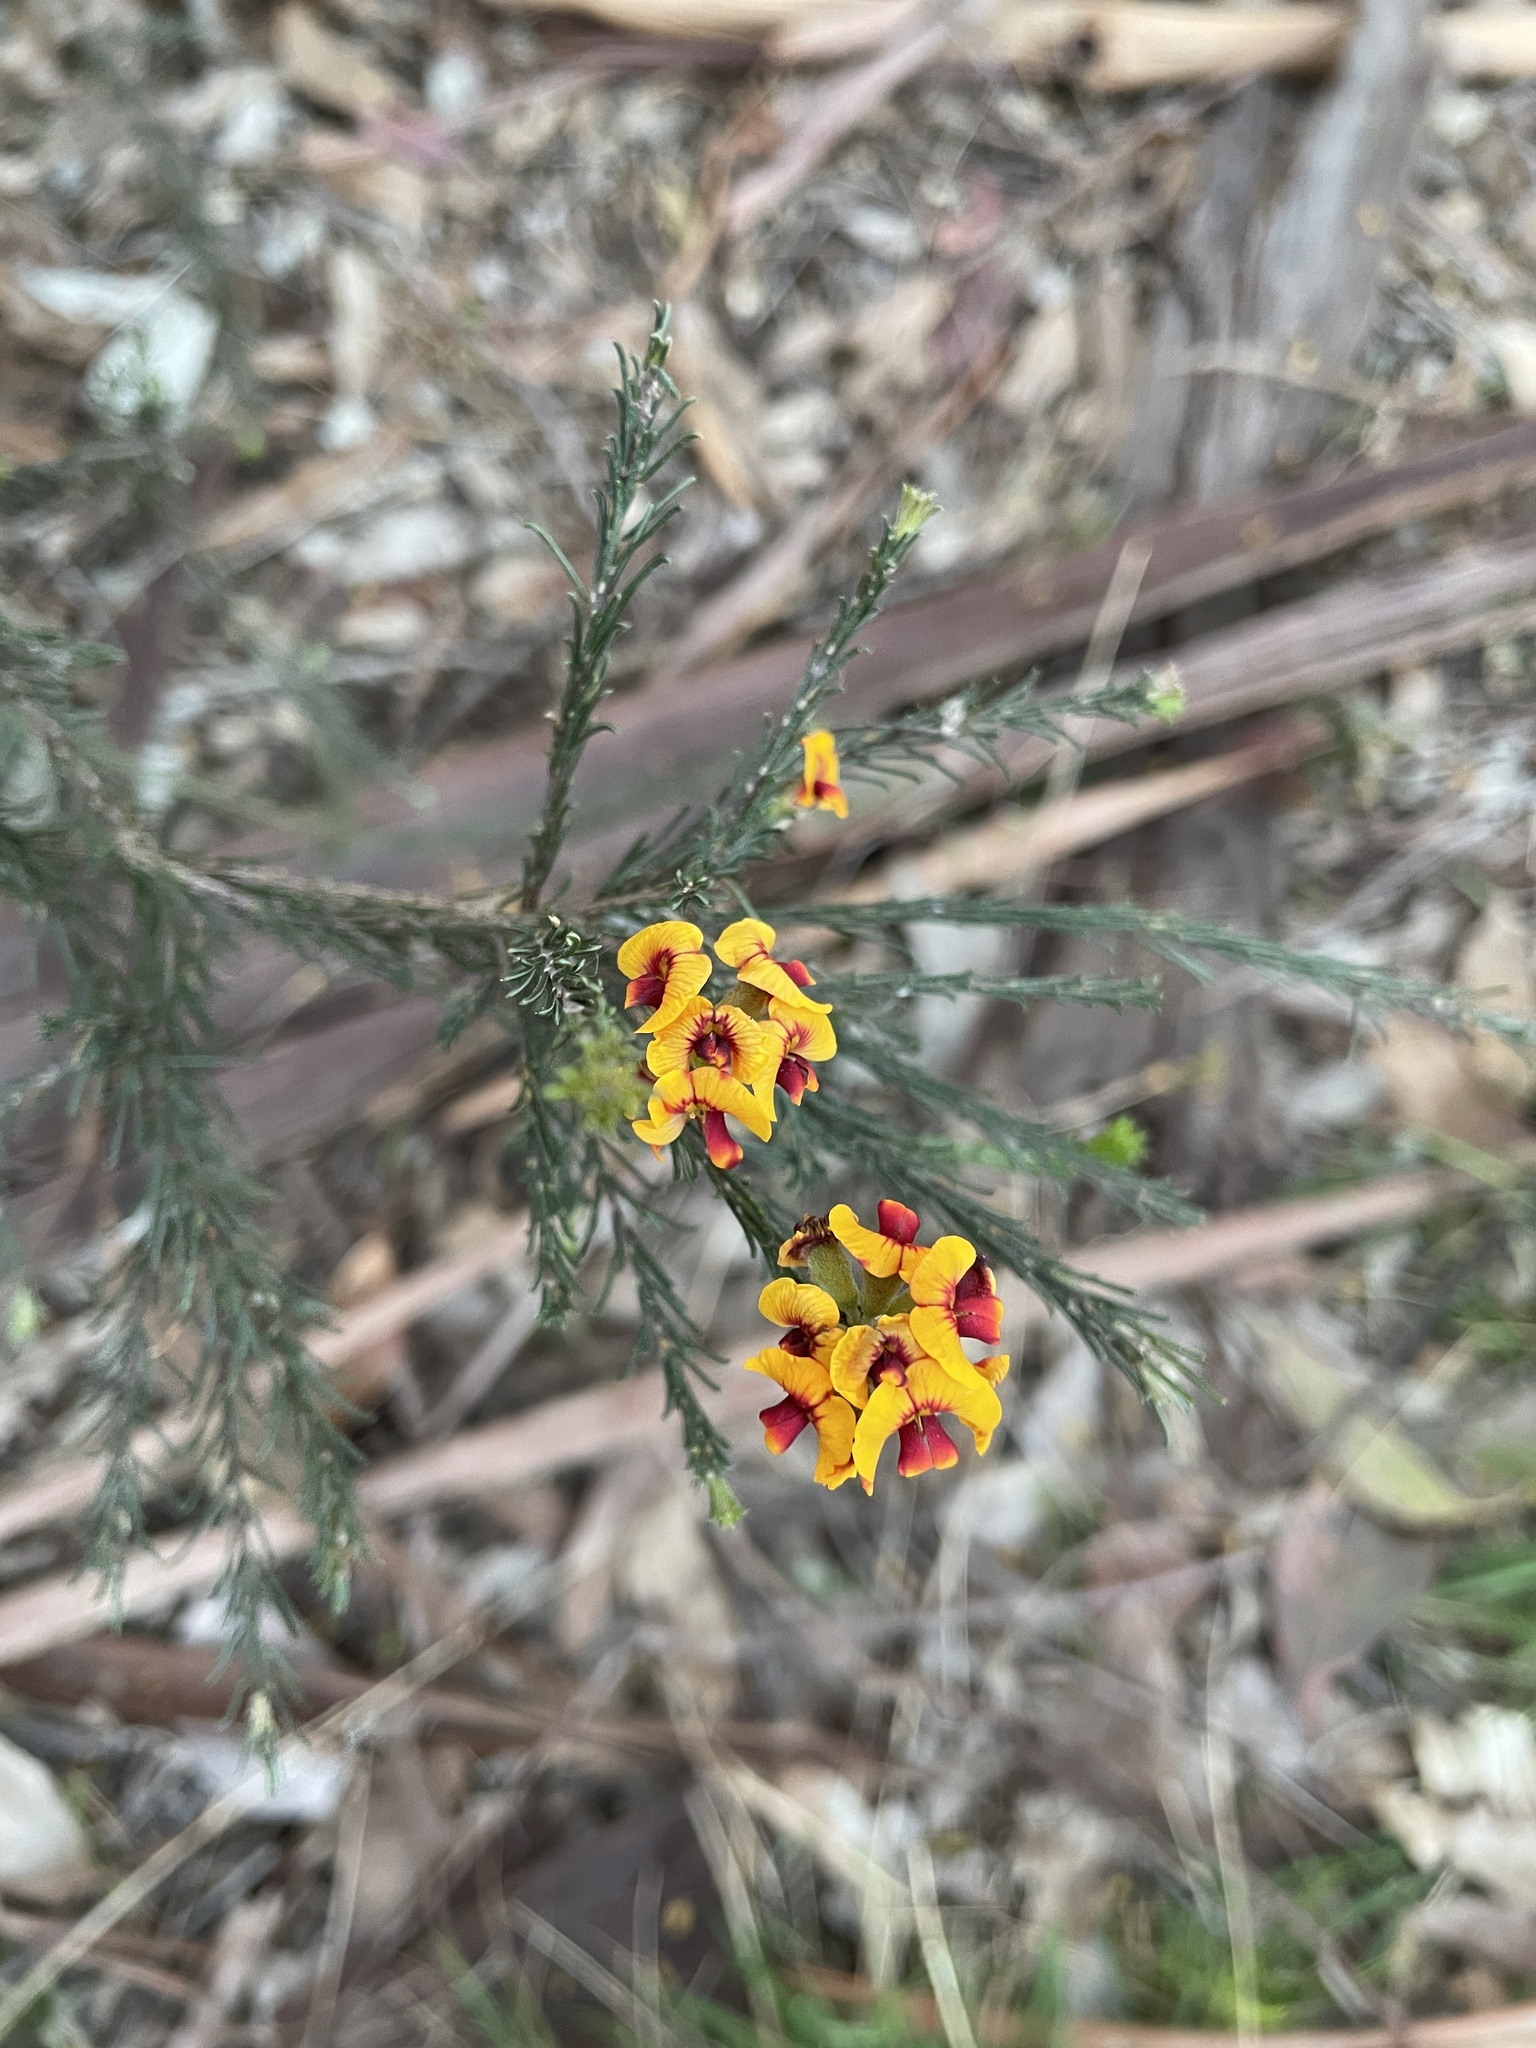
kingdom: Plantae
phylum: Tracheophyta
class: Magnoliopsida
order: Fabales
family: Fabaceae
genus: Dillwynia
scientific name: Dillwynia cinerascens
